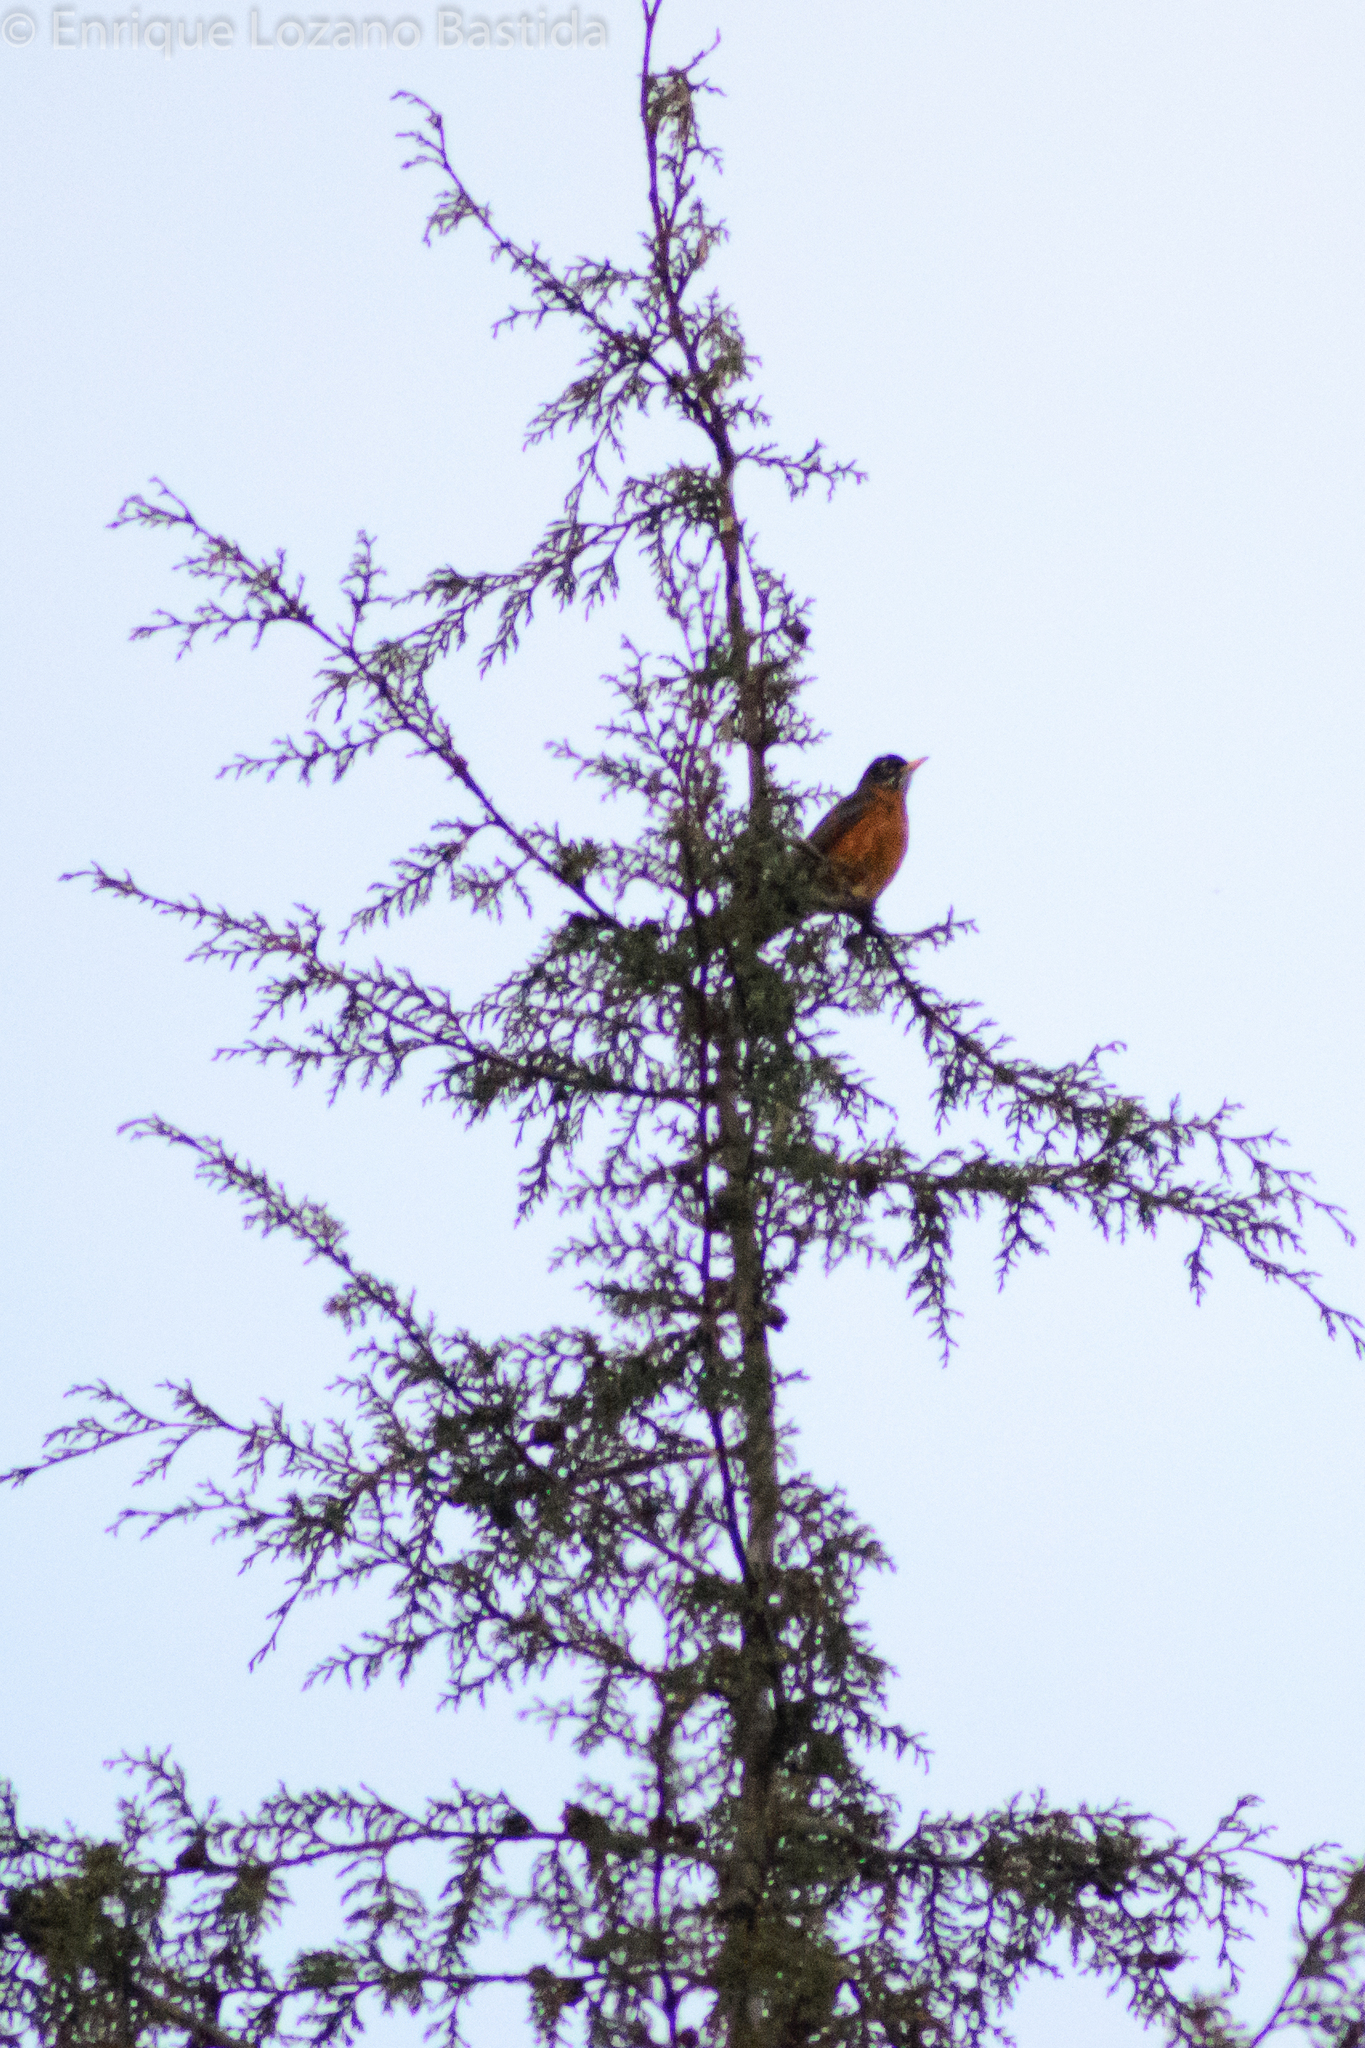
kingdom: Animalia
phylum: Chordata
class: Aves
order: Passeriformes
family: Turdidae
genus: Turdus
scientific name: Turdus migratorius
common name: American robin
